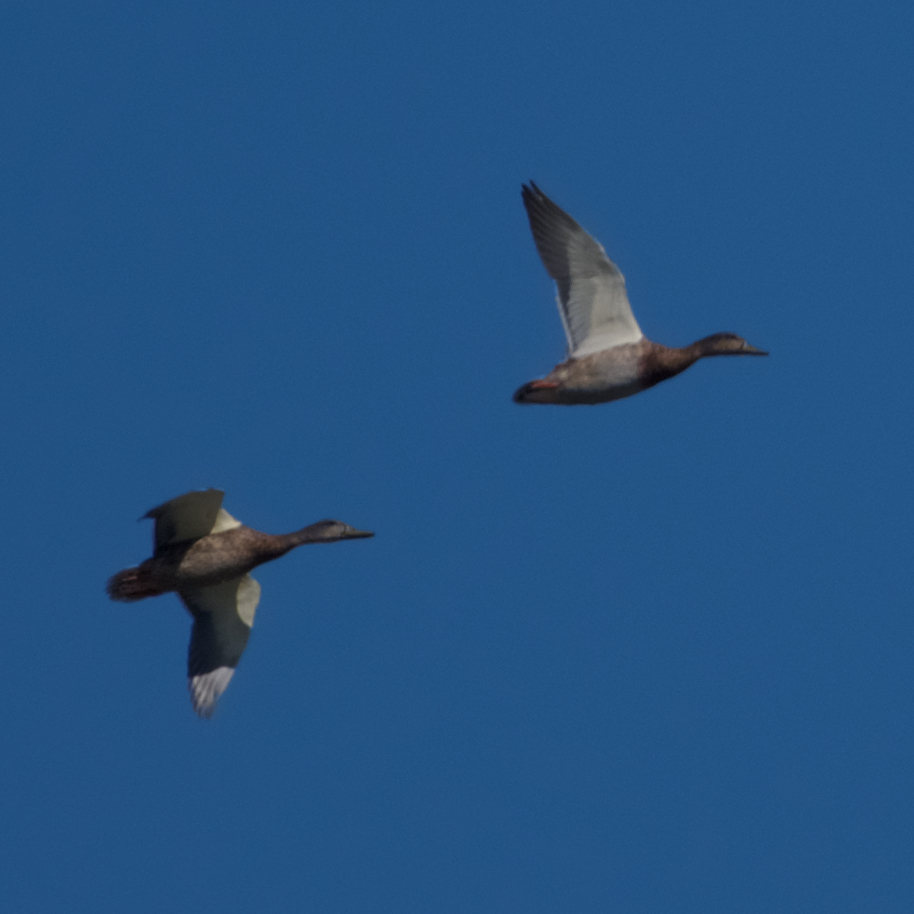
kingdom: Animalia
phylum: Chordata
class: Aves
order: Anseriformes
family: Anatidae
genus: Anas
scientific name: Anas platyrhynchos
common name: Mallard
